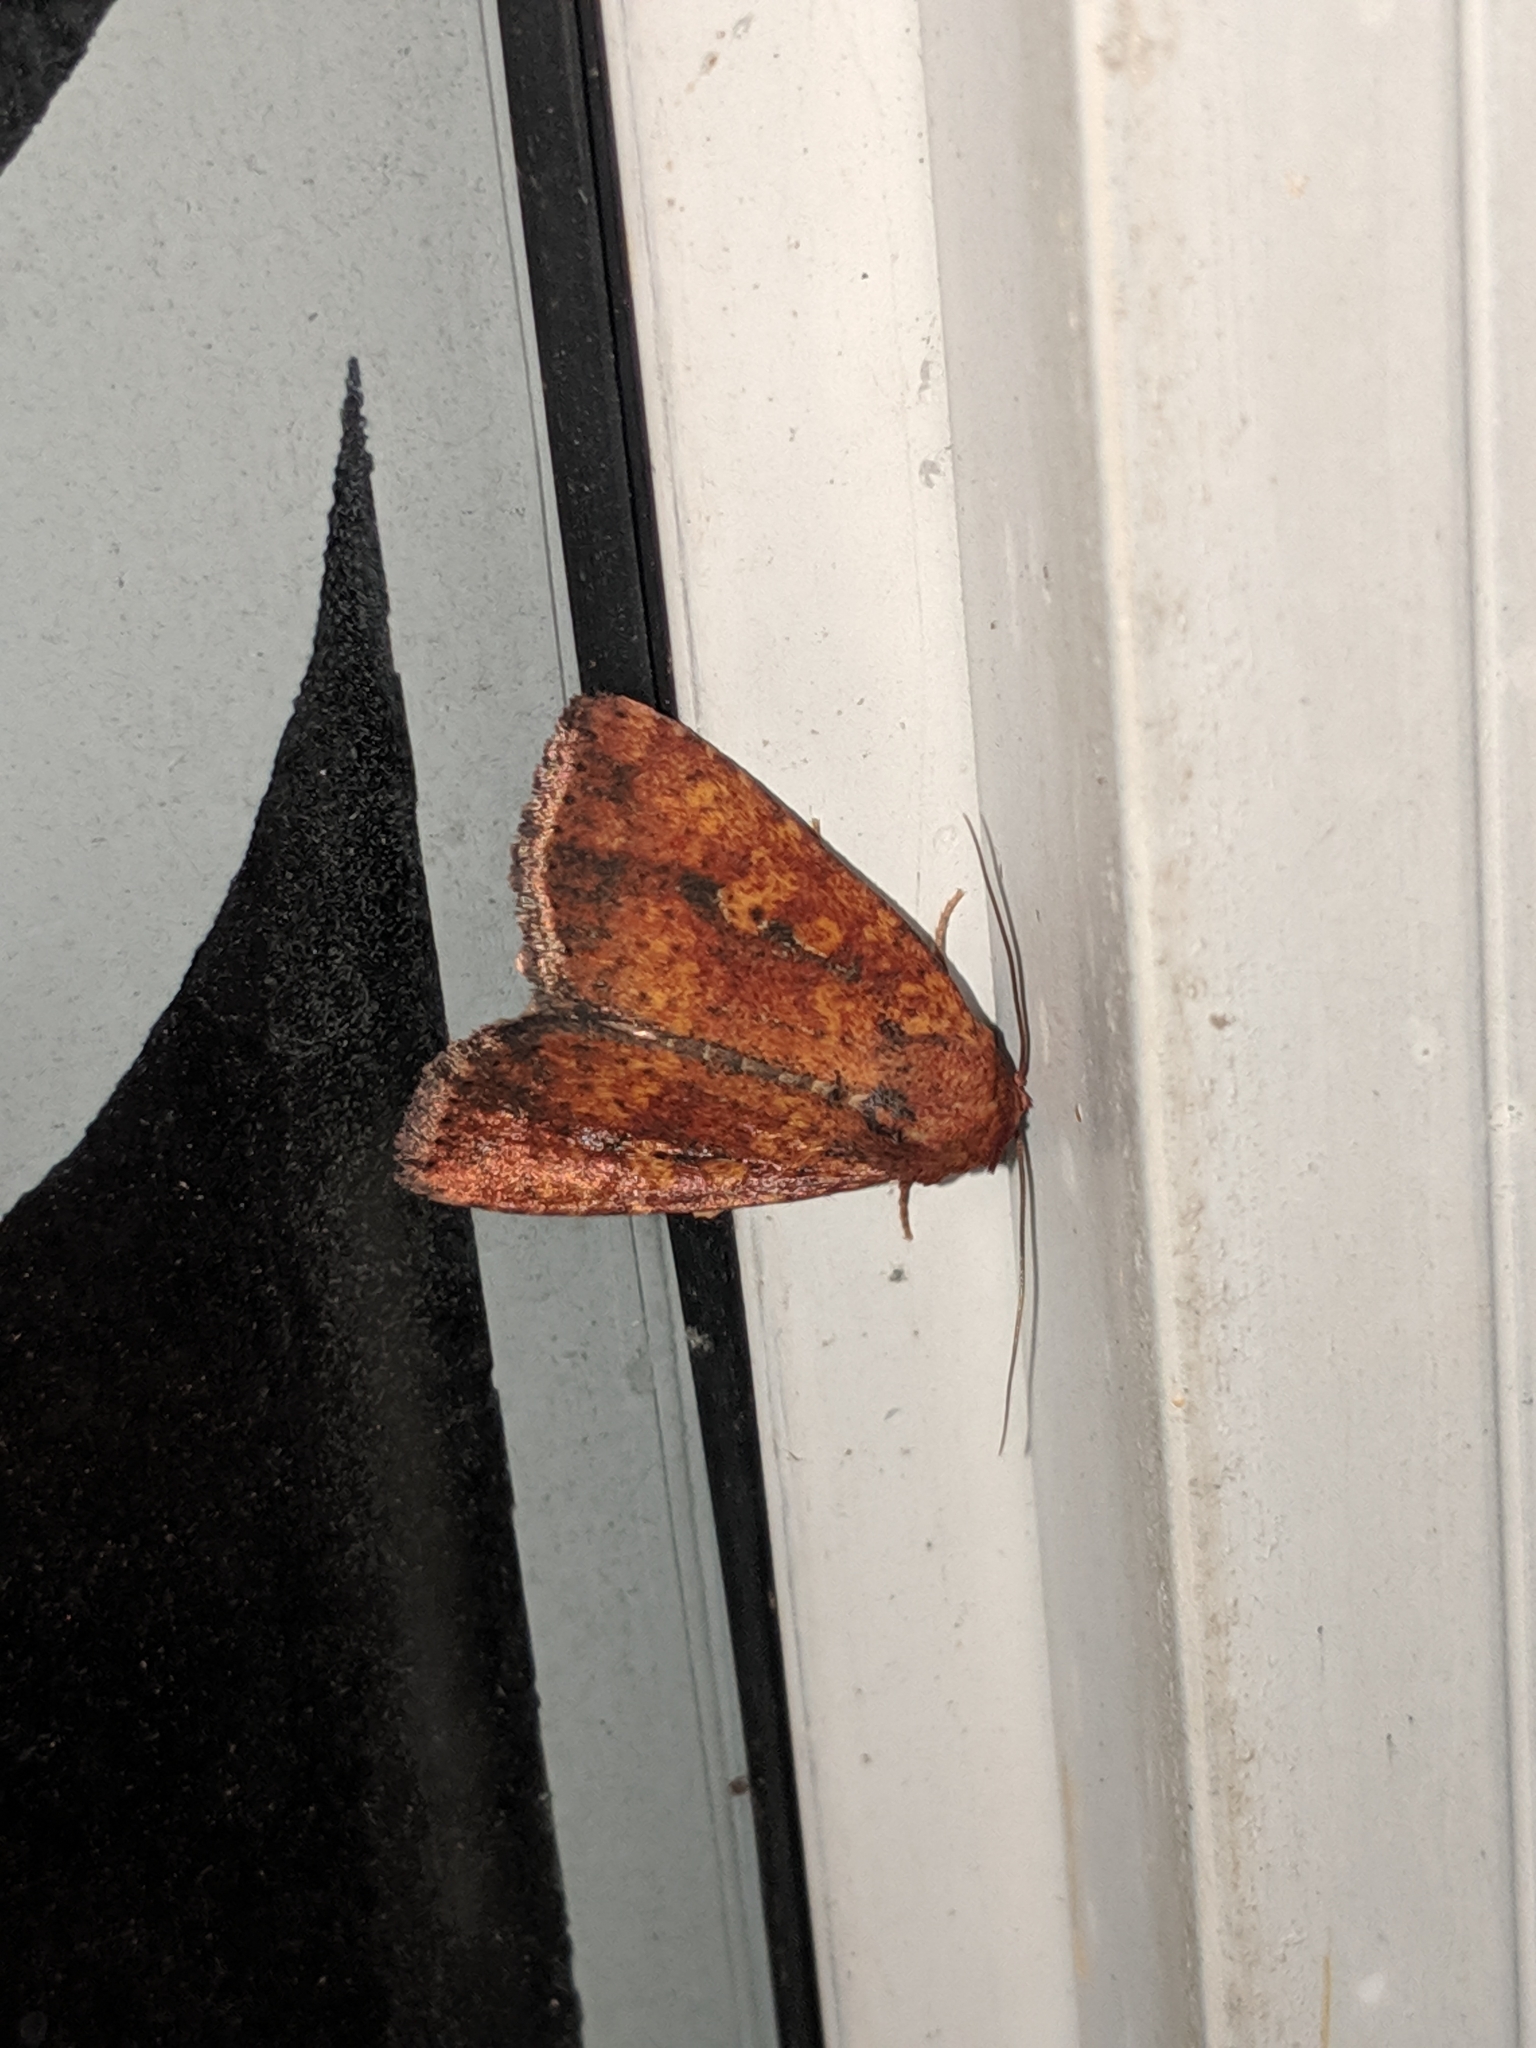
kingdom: Animalia
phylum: Arthropoda
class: Insecta
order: Lepidoptera
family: Noctuidae
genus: Perigea
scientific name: Perigea xanthioides
